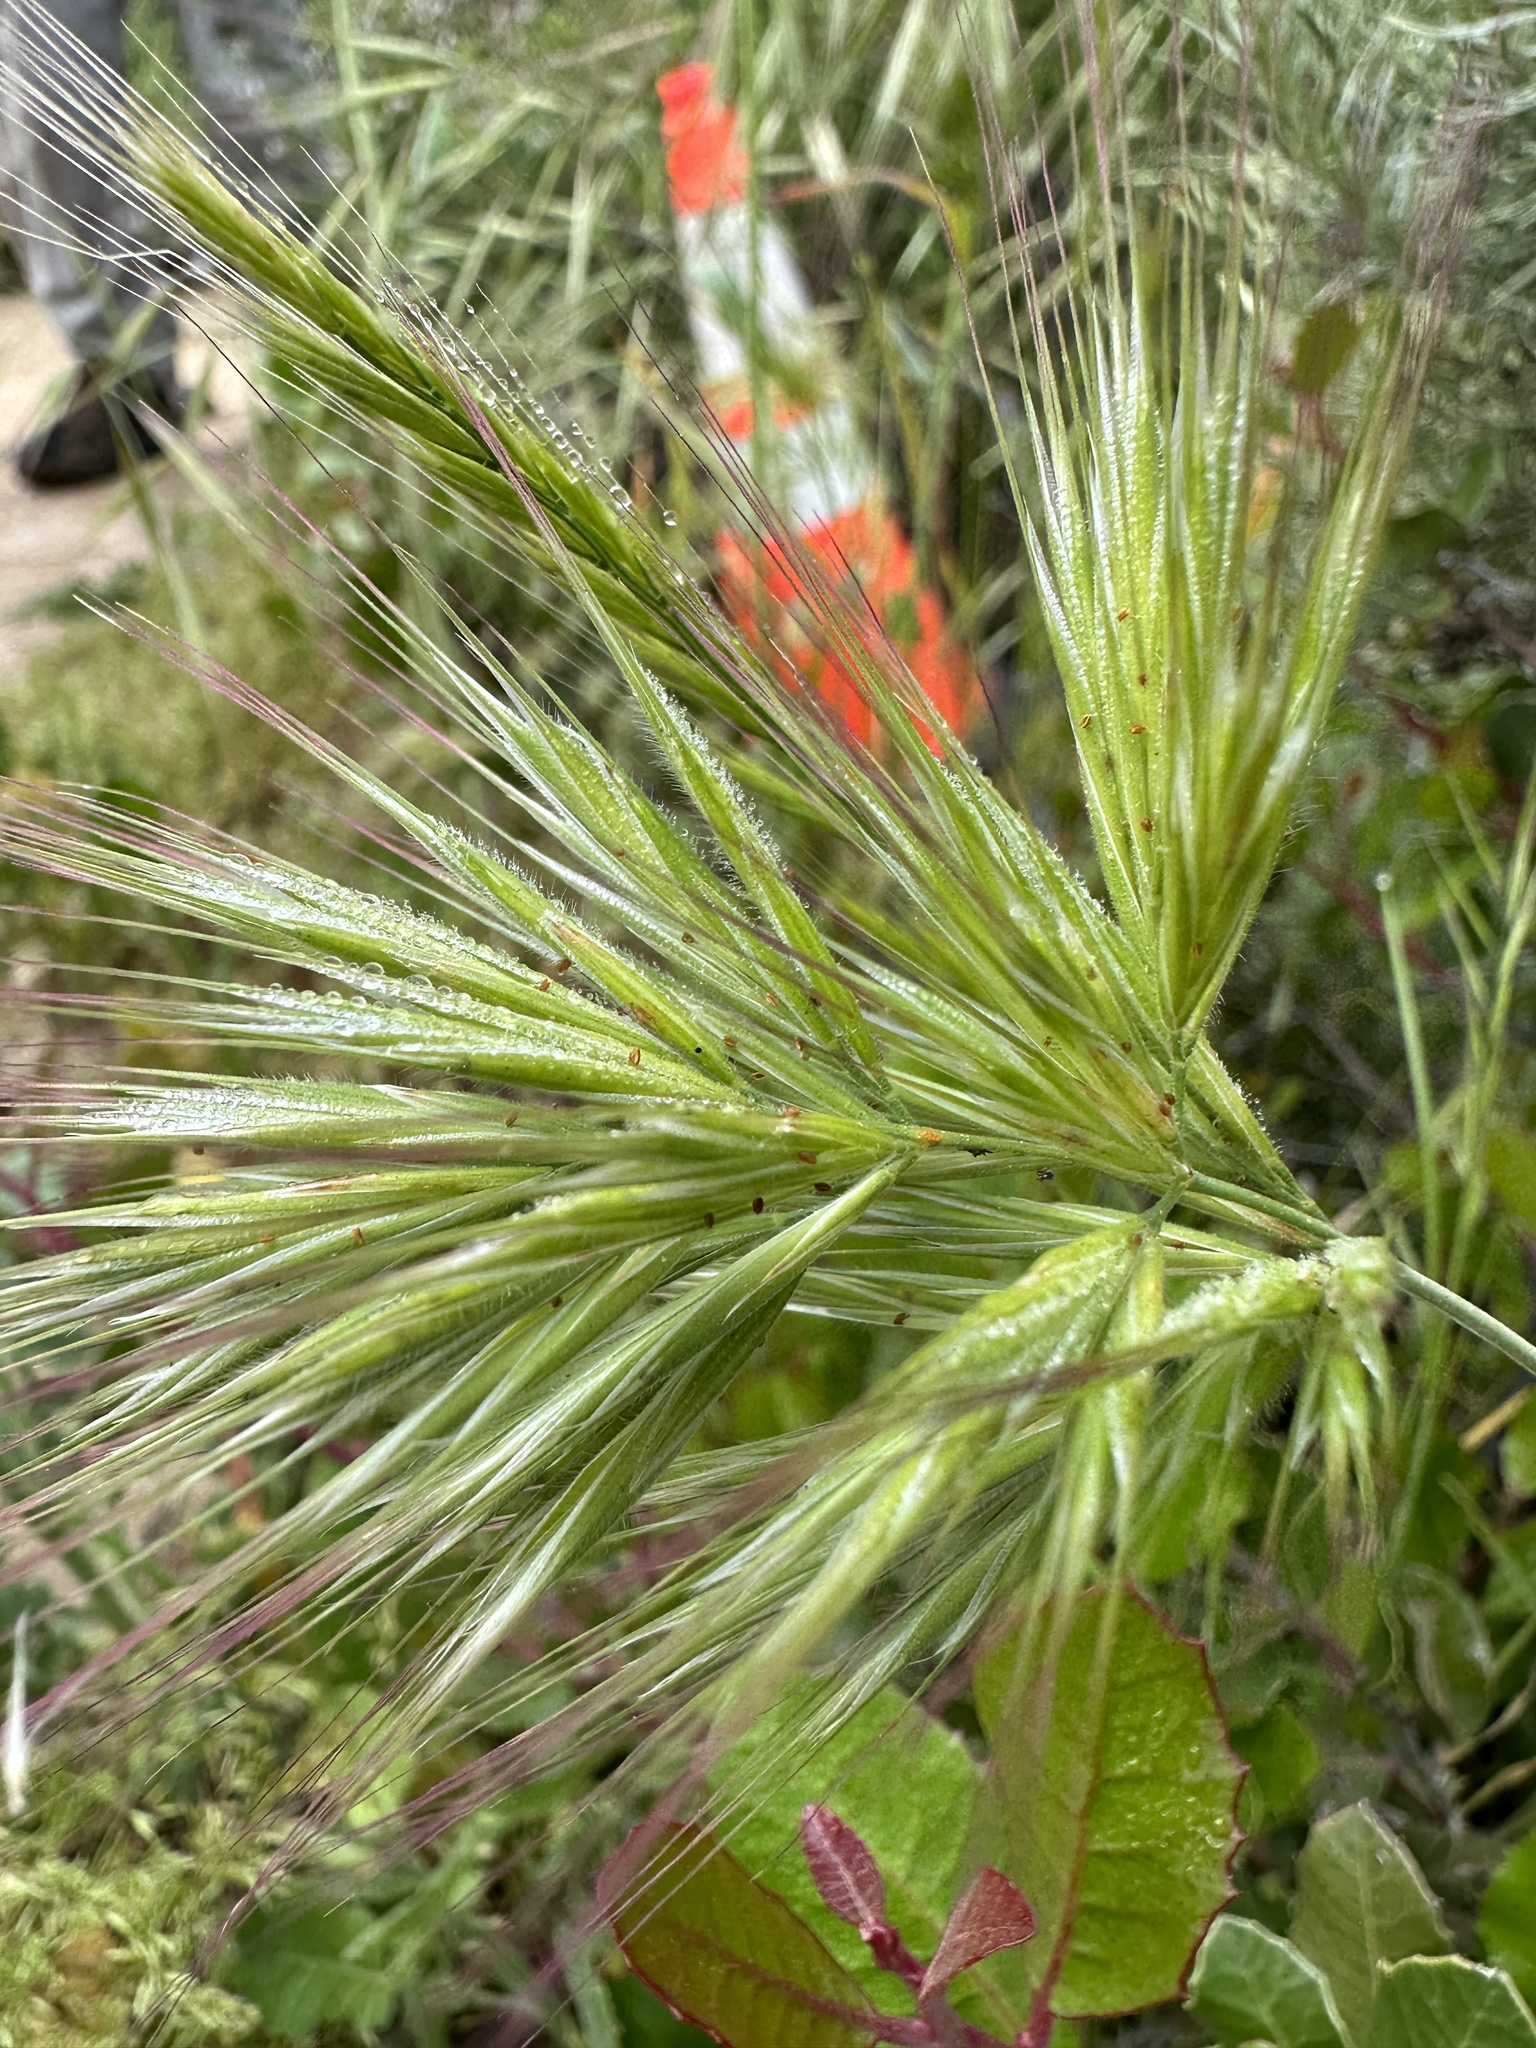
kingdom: Plantae
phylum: Tracheophyta
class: Liliopsida
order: Poales
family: Poaceae
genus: Bromus
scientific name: Bromus rubens
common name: Red brome
